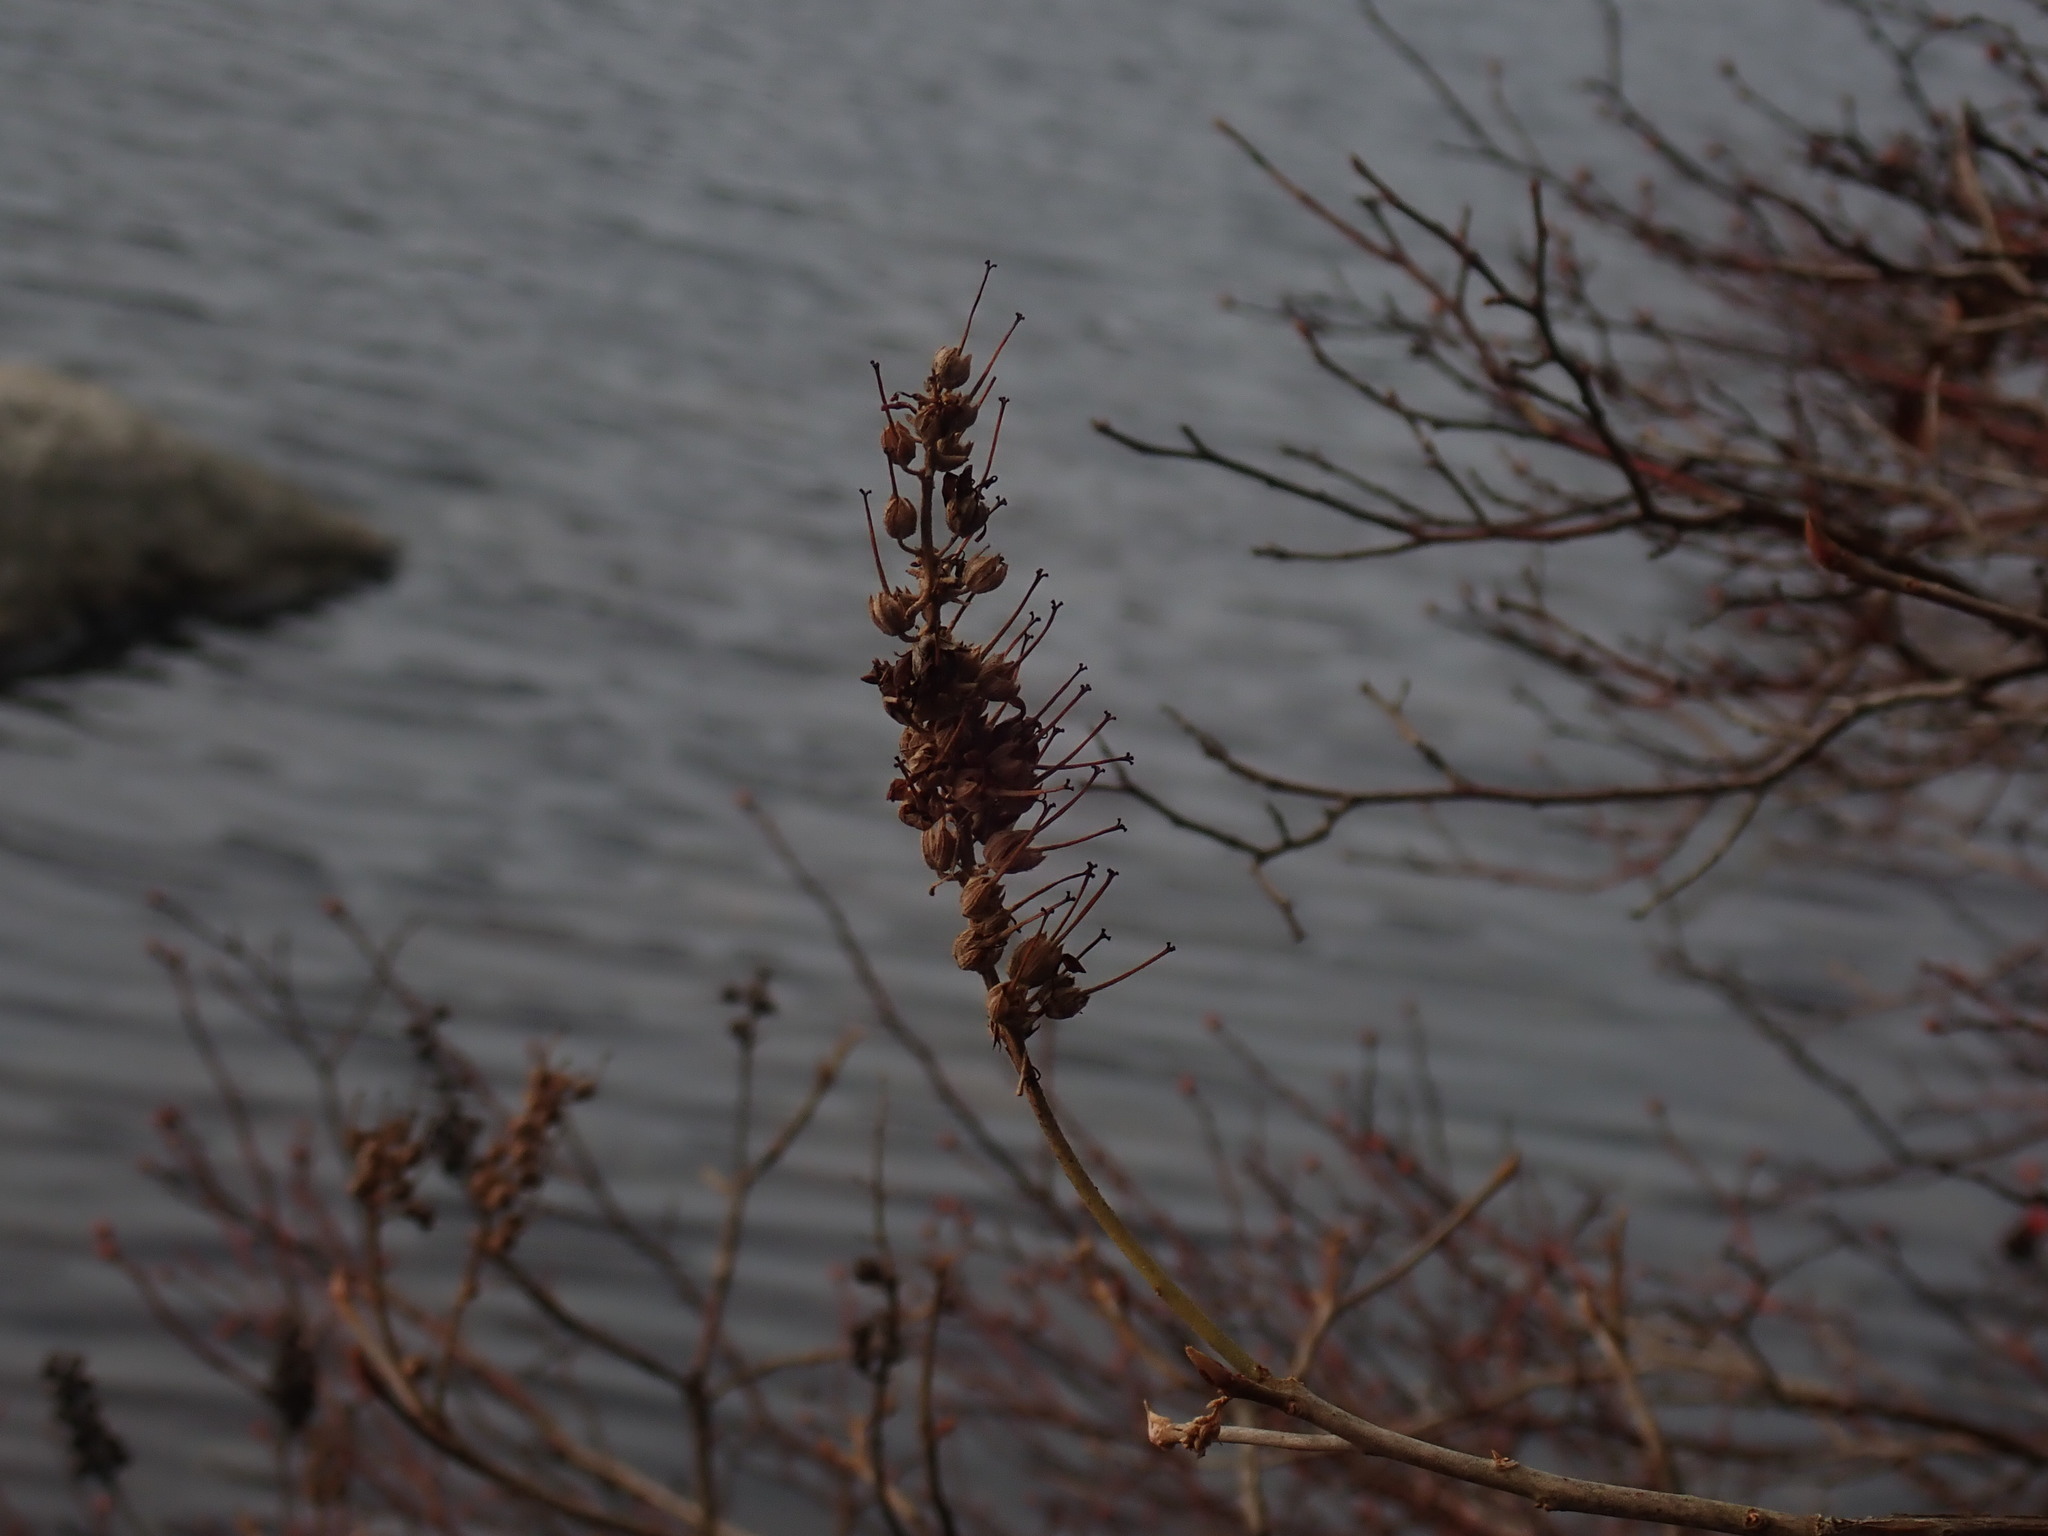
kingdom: Plantae
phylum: Tracheophyta
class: Magnoliopsida
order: Ericales
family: Clethraceae
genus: Clethra
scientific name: Clethra alnifolia
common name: Sweet pepperbush
